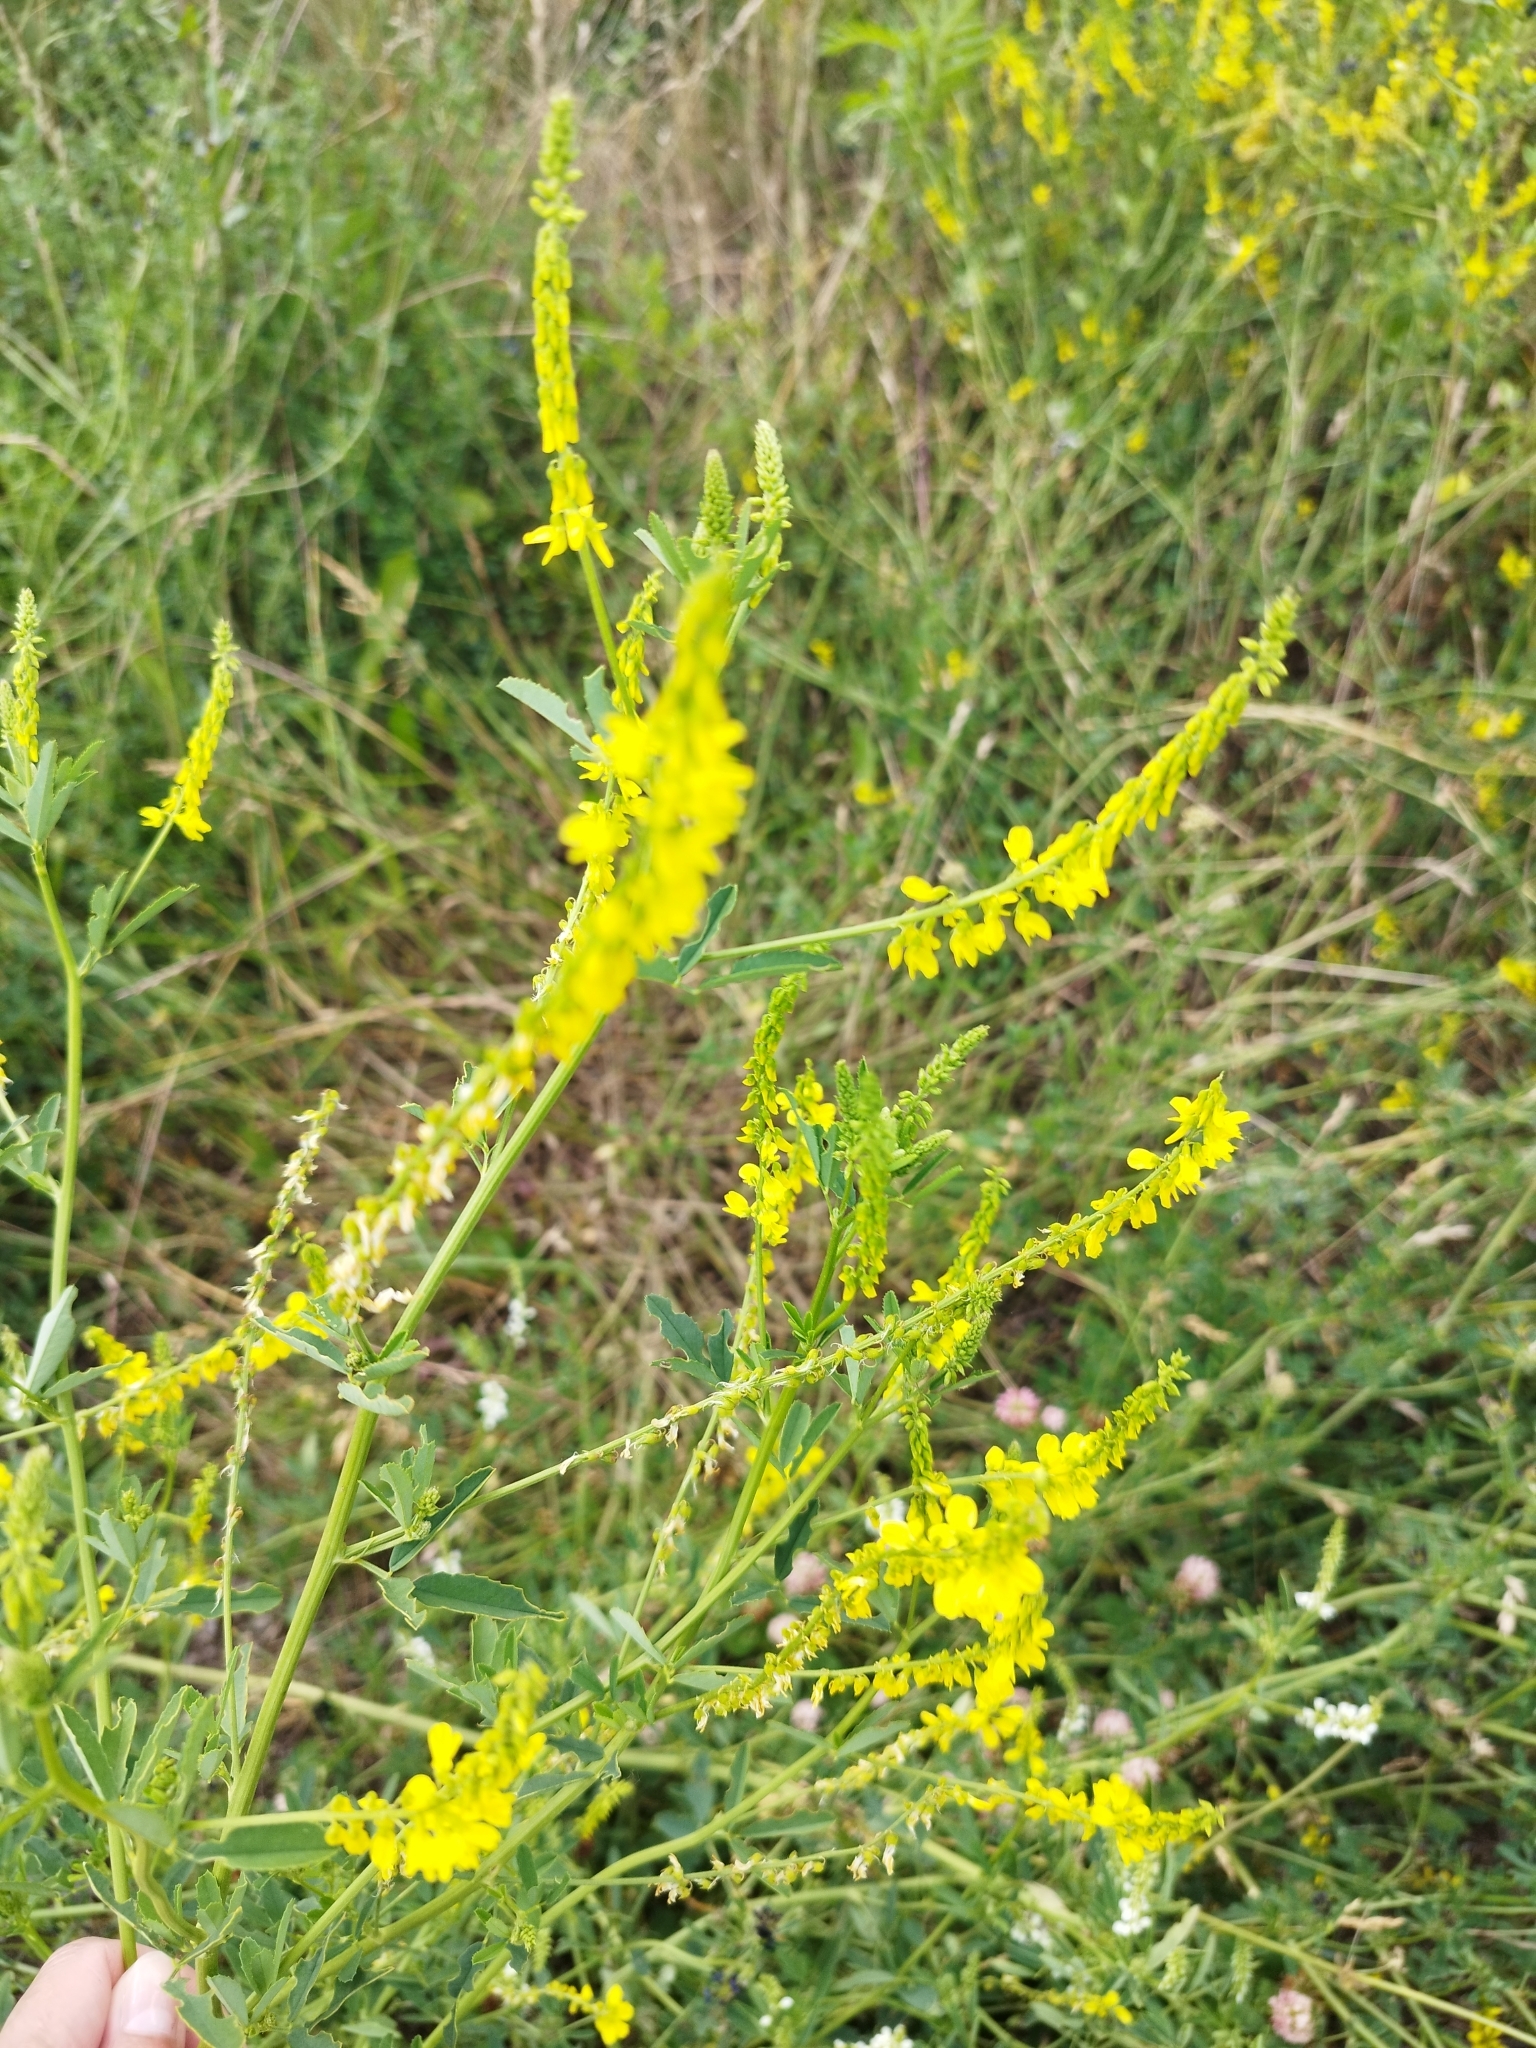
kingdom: Plantae
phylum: Tracheophyta
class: Magnoliopsida
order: Fabales
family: Fabaceae
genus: Melilotus
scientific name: Melilotus officinalis
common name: Sweetclover
